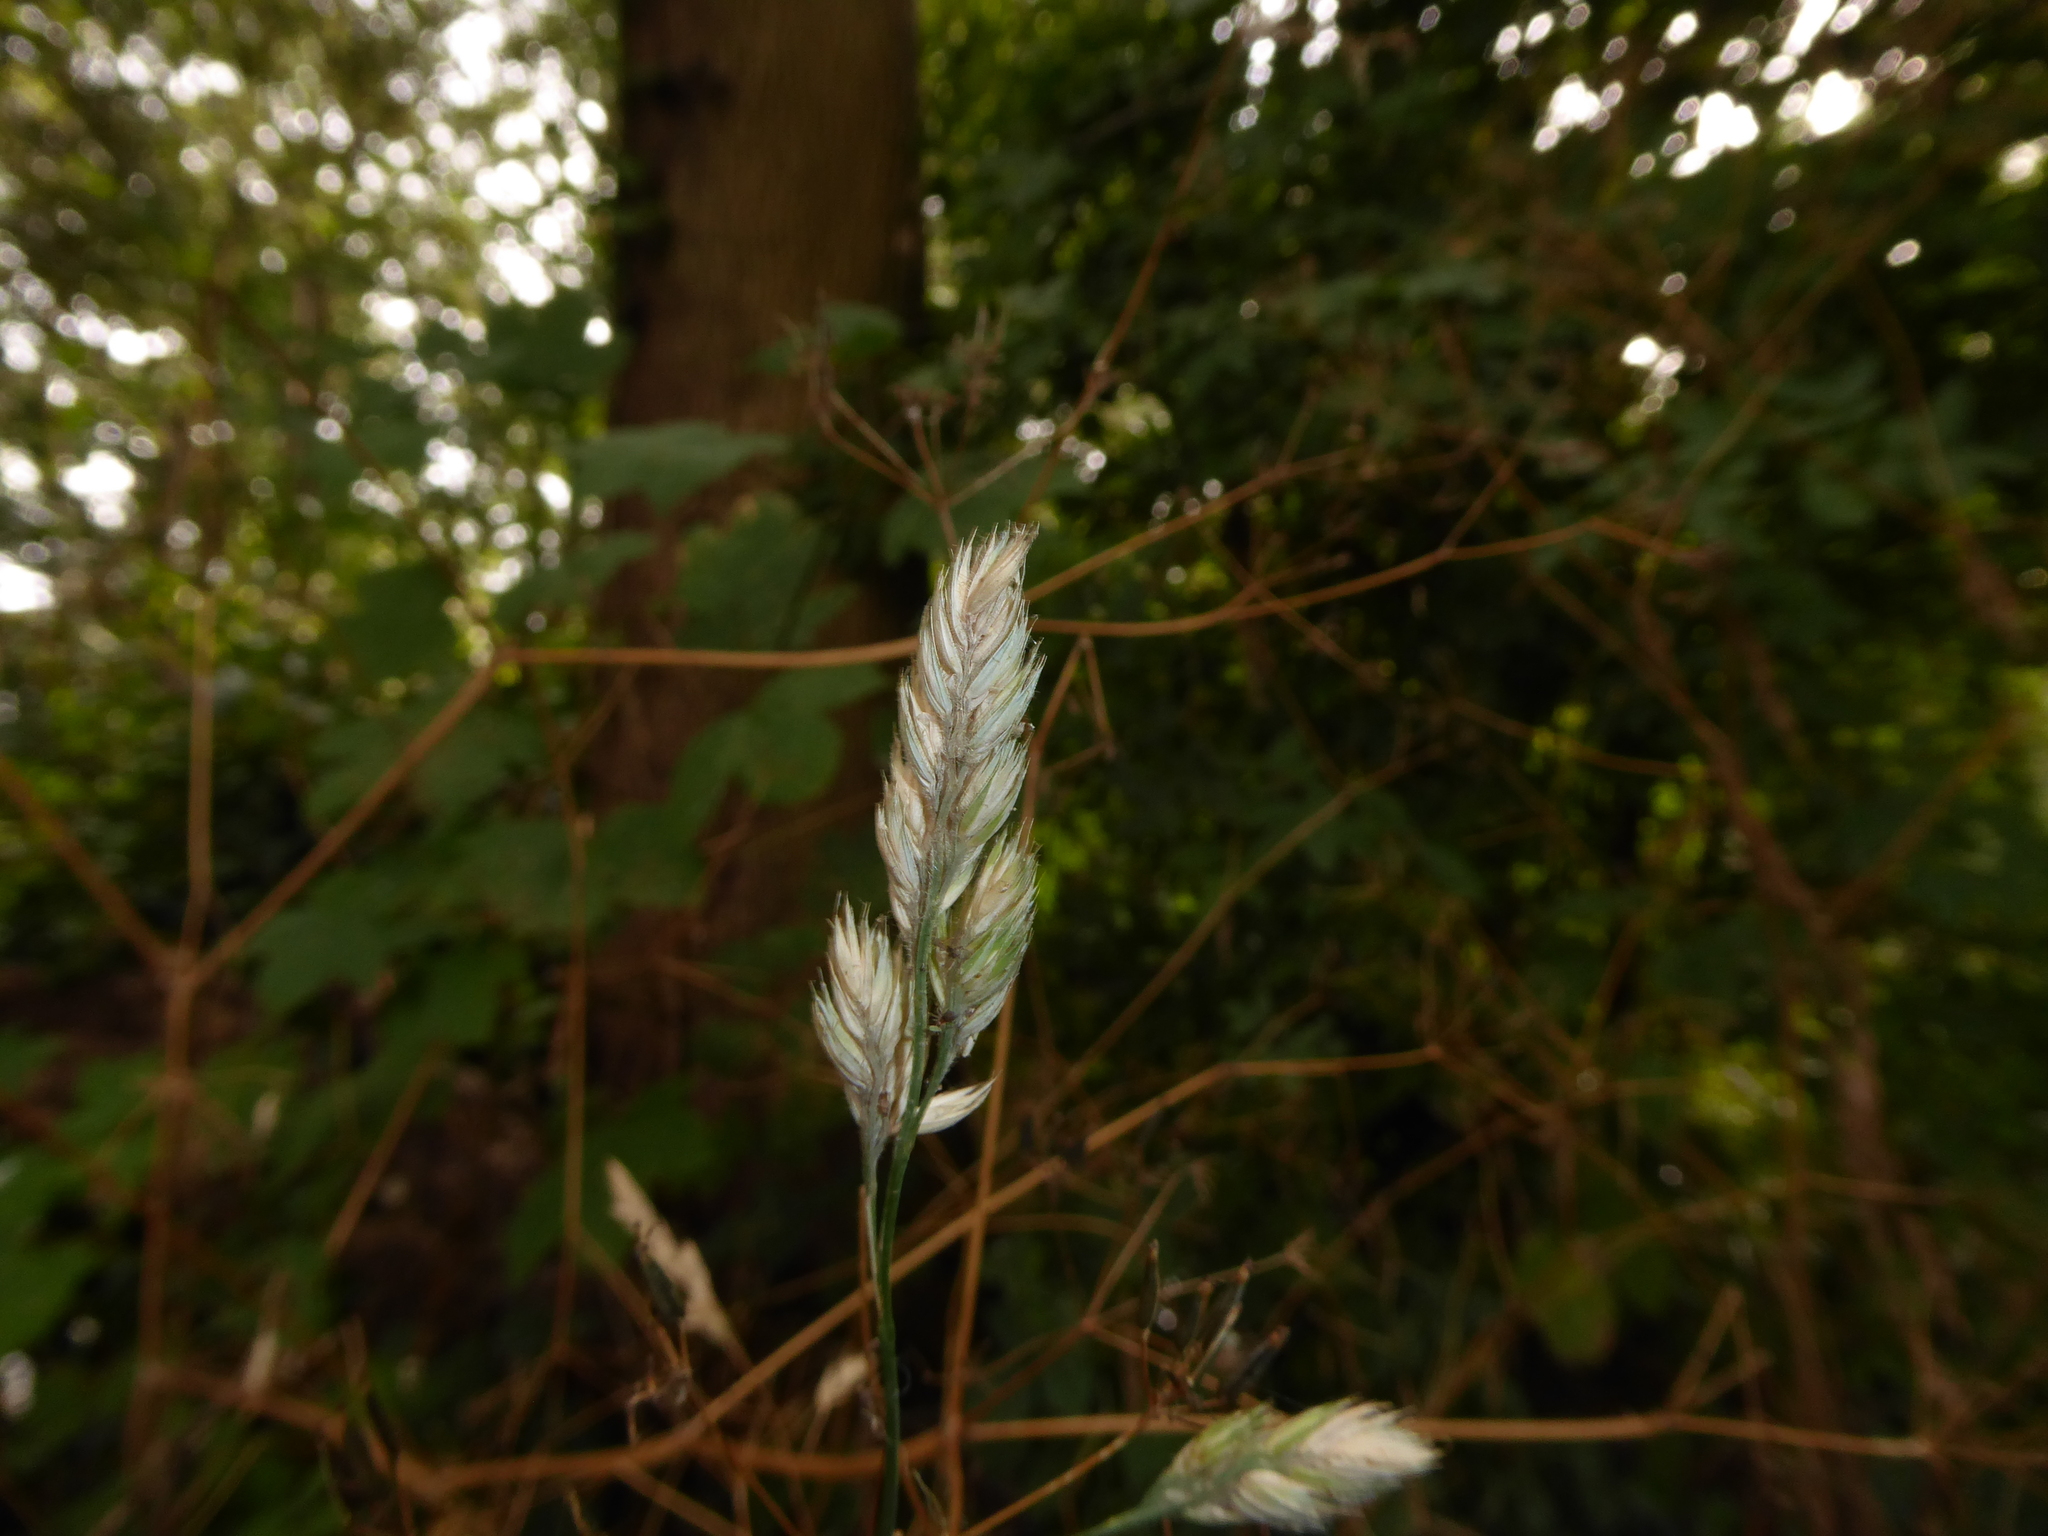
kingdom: Plantae
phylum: Tracheophyta
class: Liliopsida
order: Poales
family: Poaceae
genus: Dactylis
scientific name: Dactylis glomerata
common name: Orchardgrass
